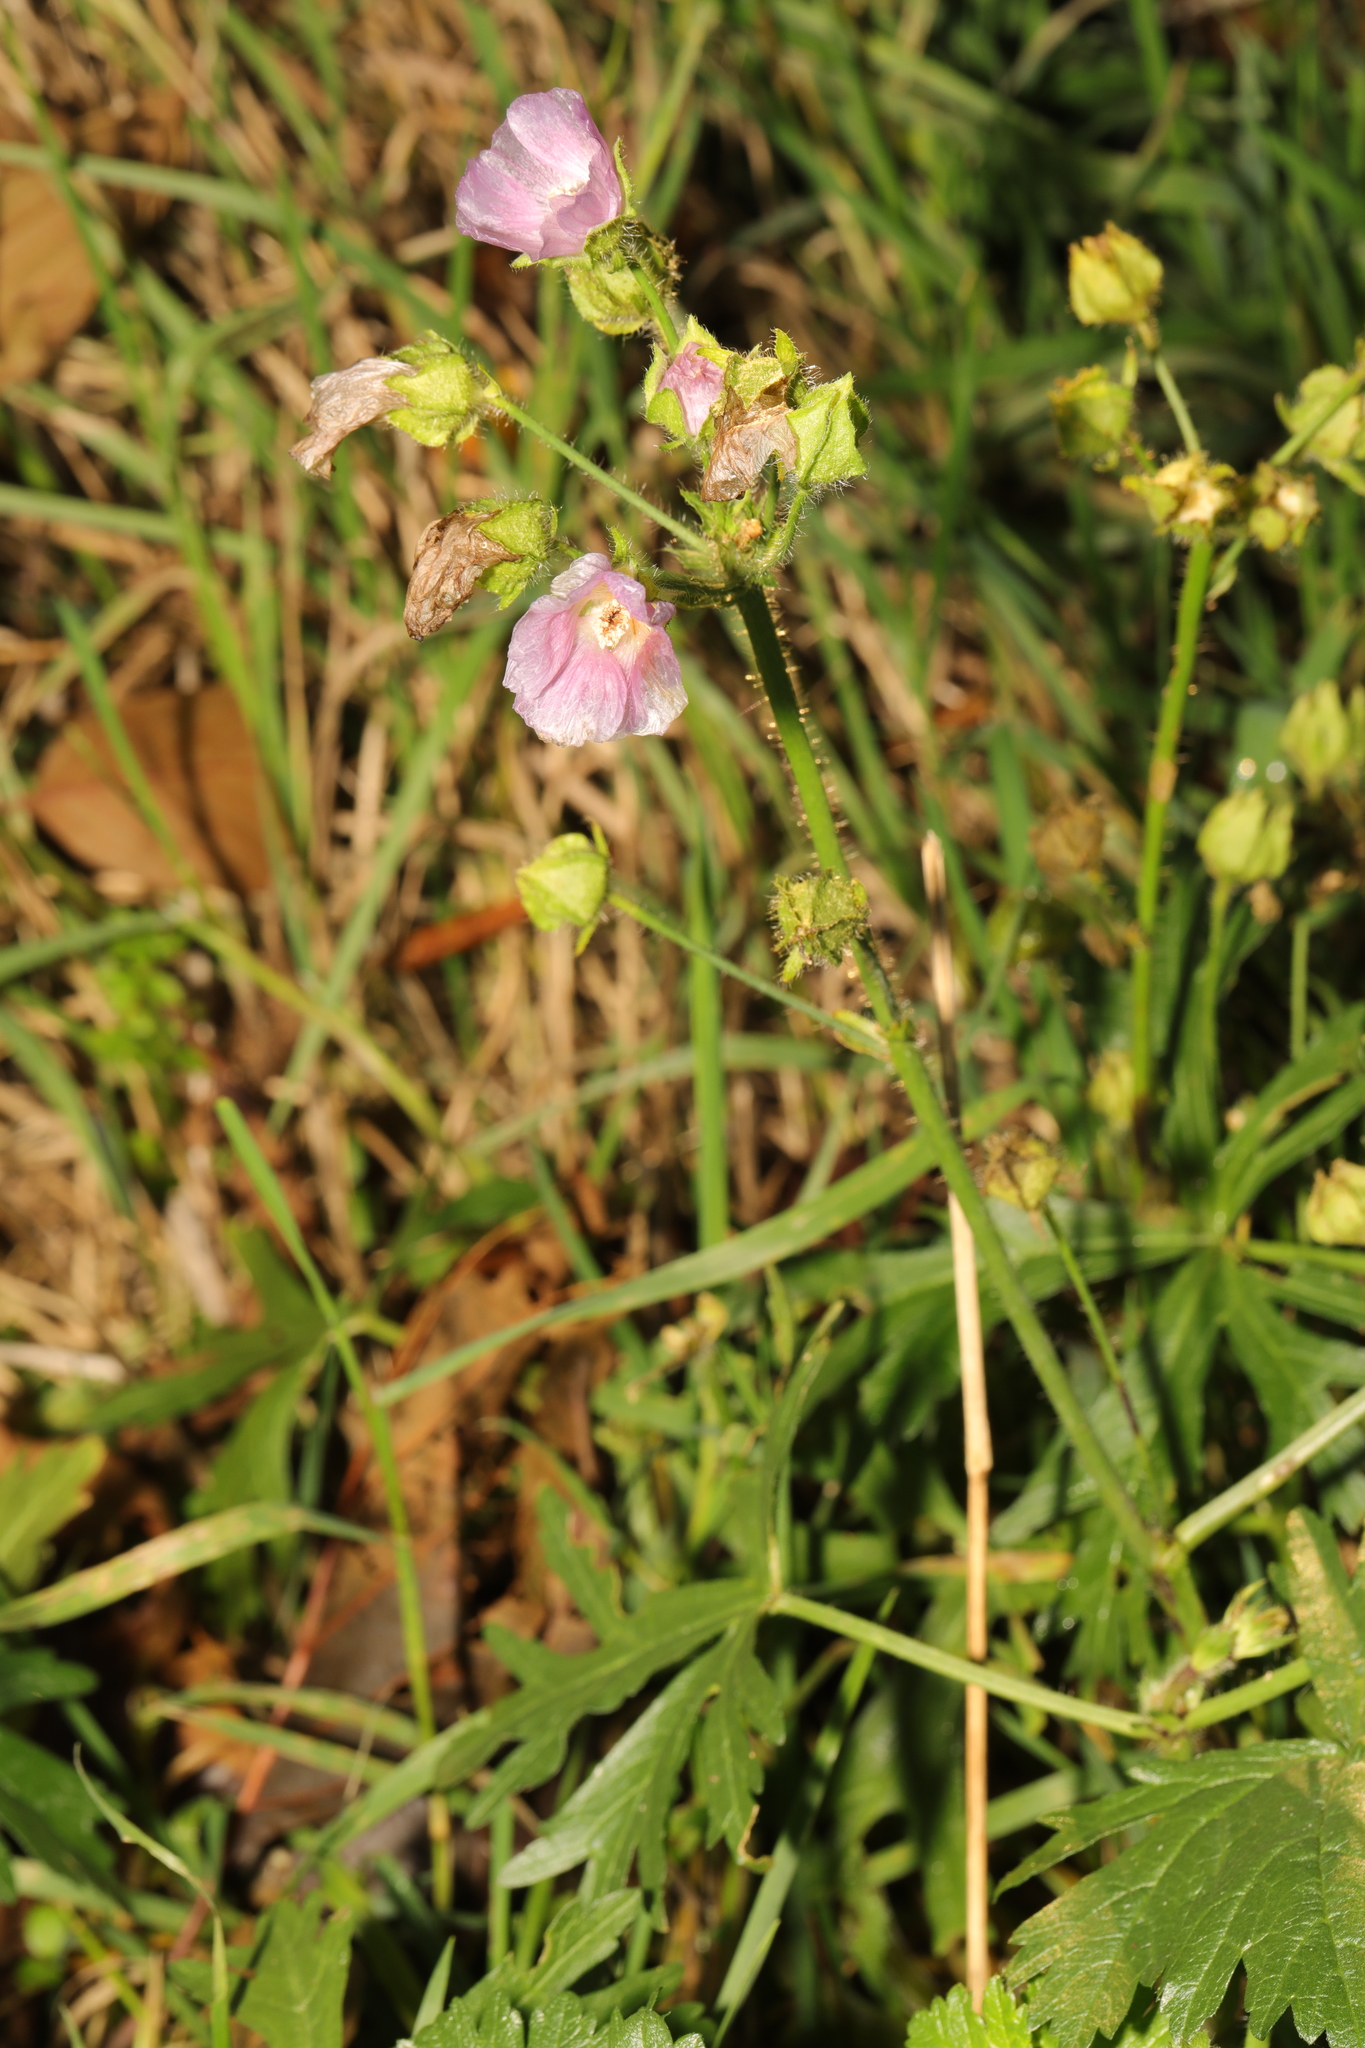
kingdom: Plantae
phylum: Tracheophyta
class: Magnoliopsida
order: Malvales
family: Malvaceae
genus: Malva
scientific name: Malva moschata
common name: Musk mallow
